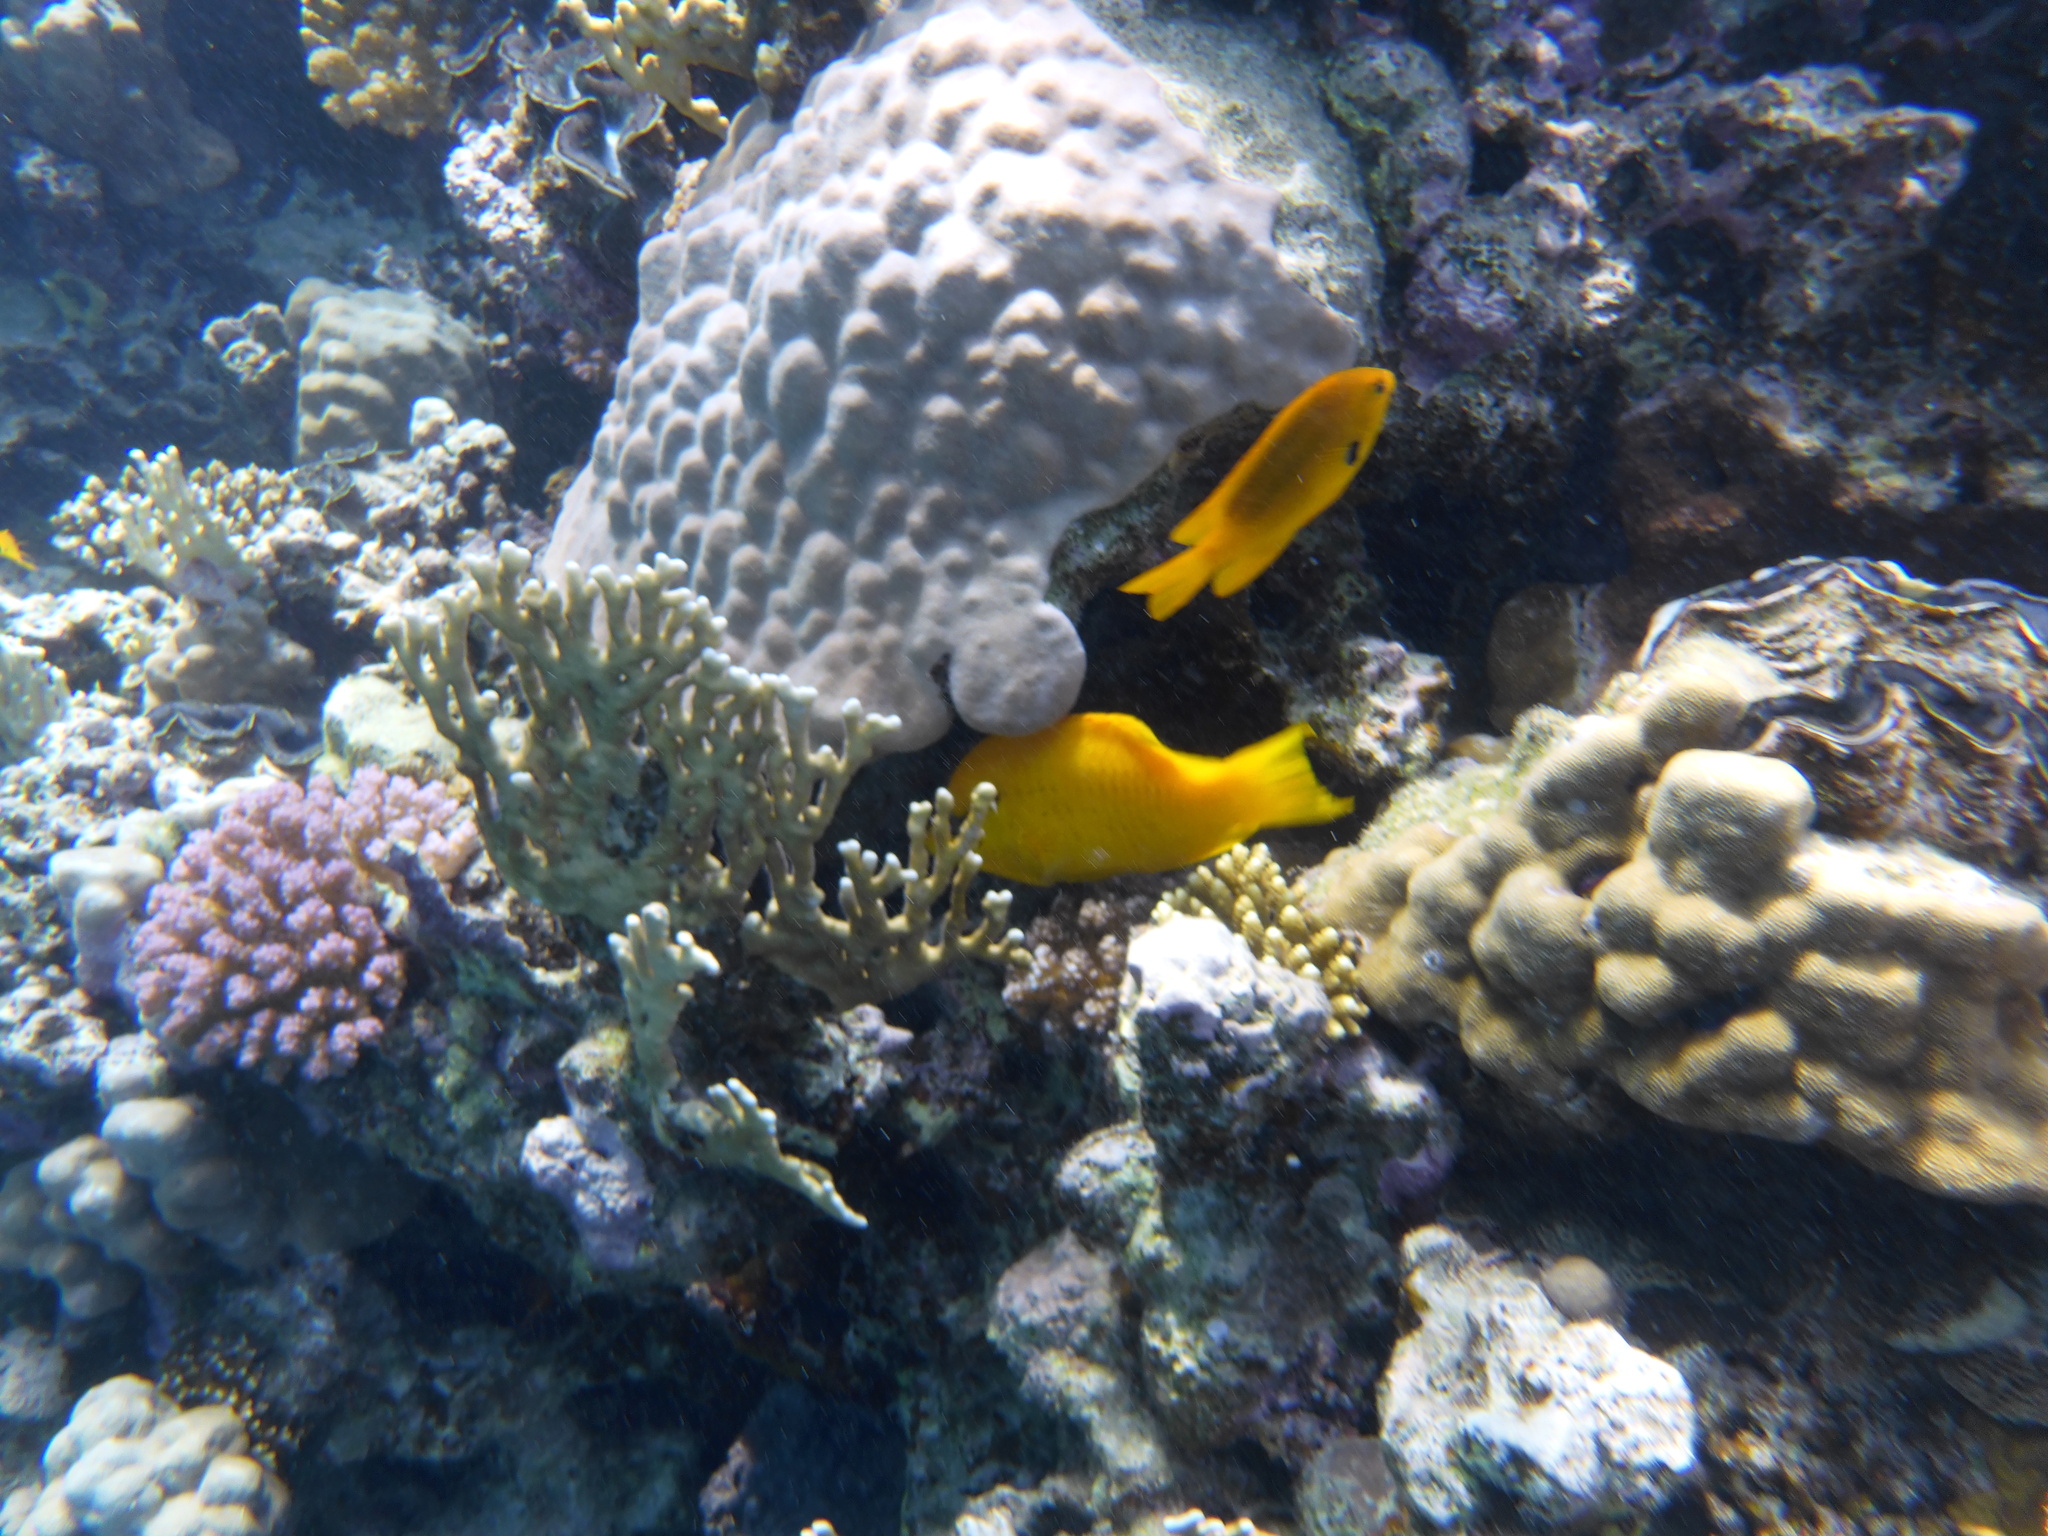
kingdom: Animalia
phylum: Chordata
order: Perciformes
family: Labridae
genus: Epibulus
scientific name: Epibulus insidiator
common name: Slingjaw wrasse
